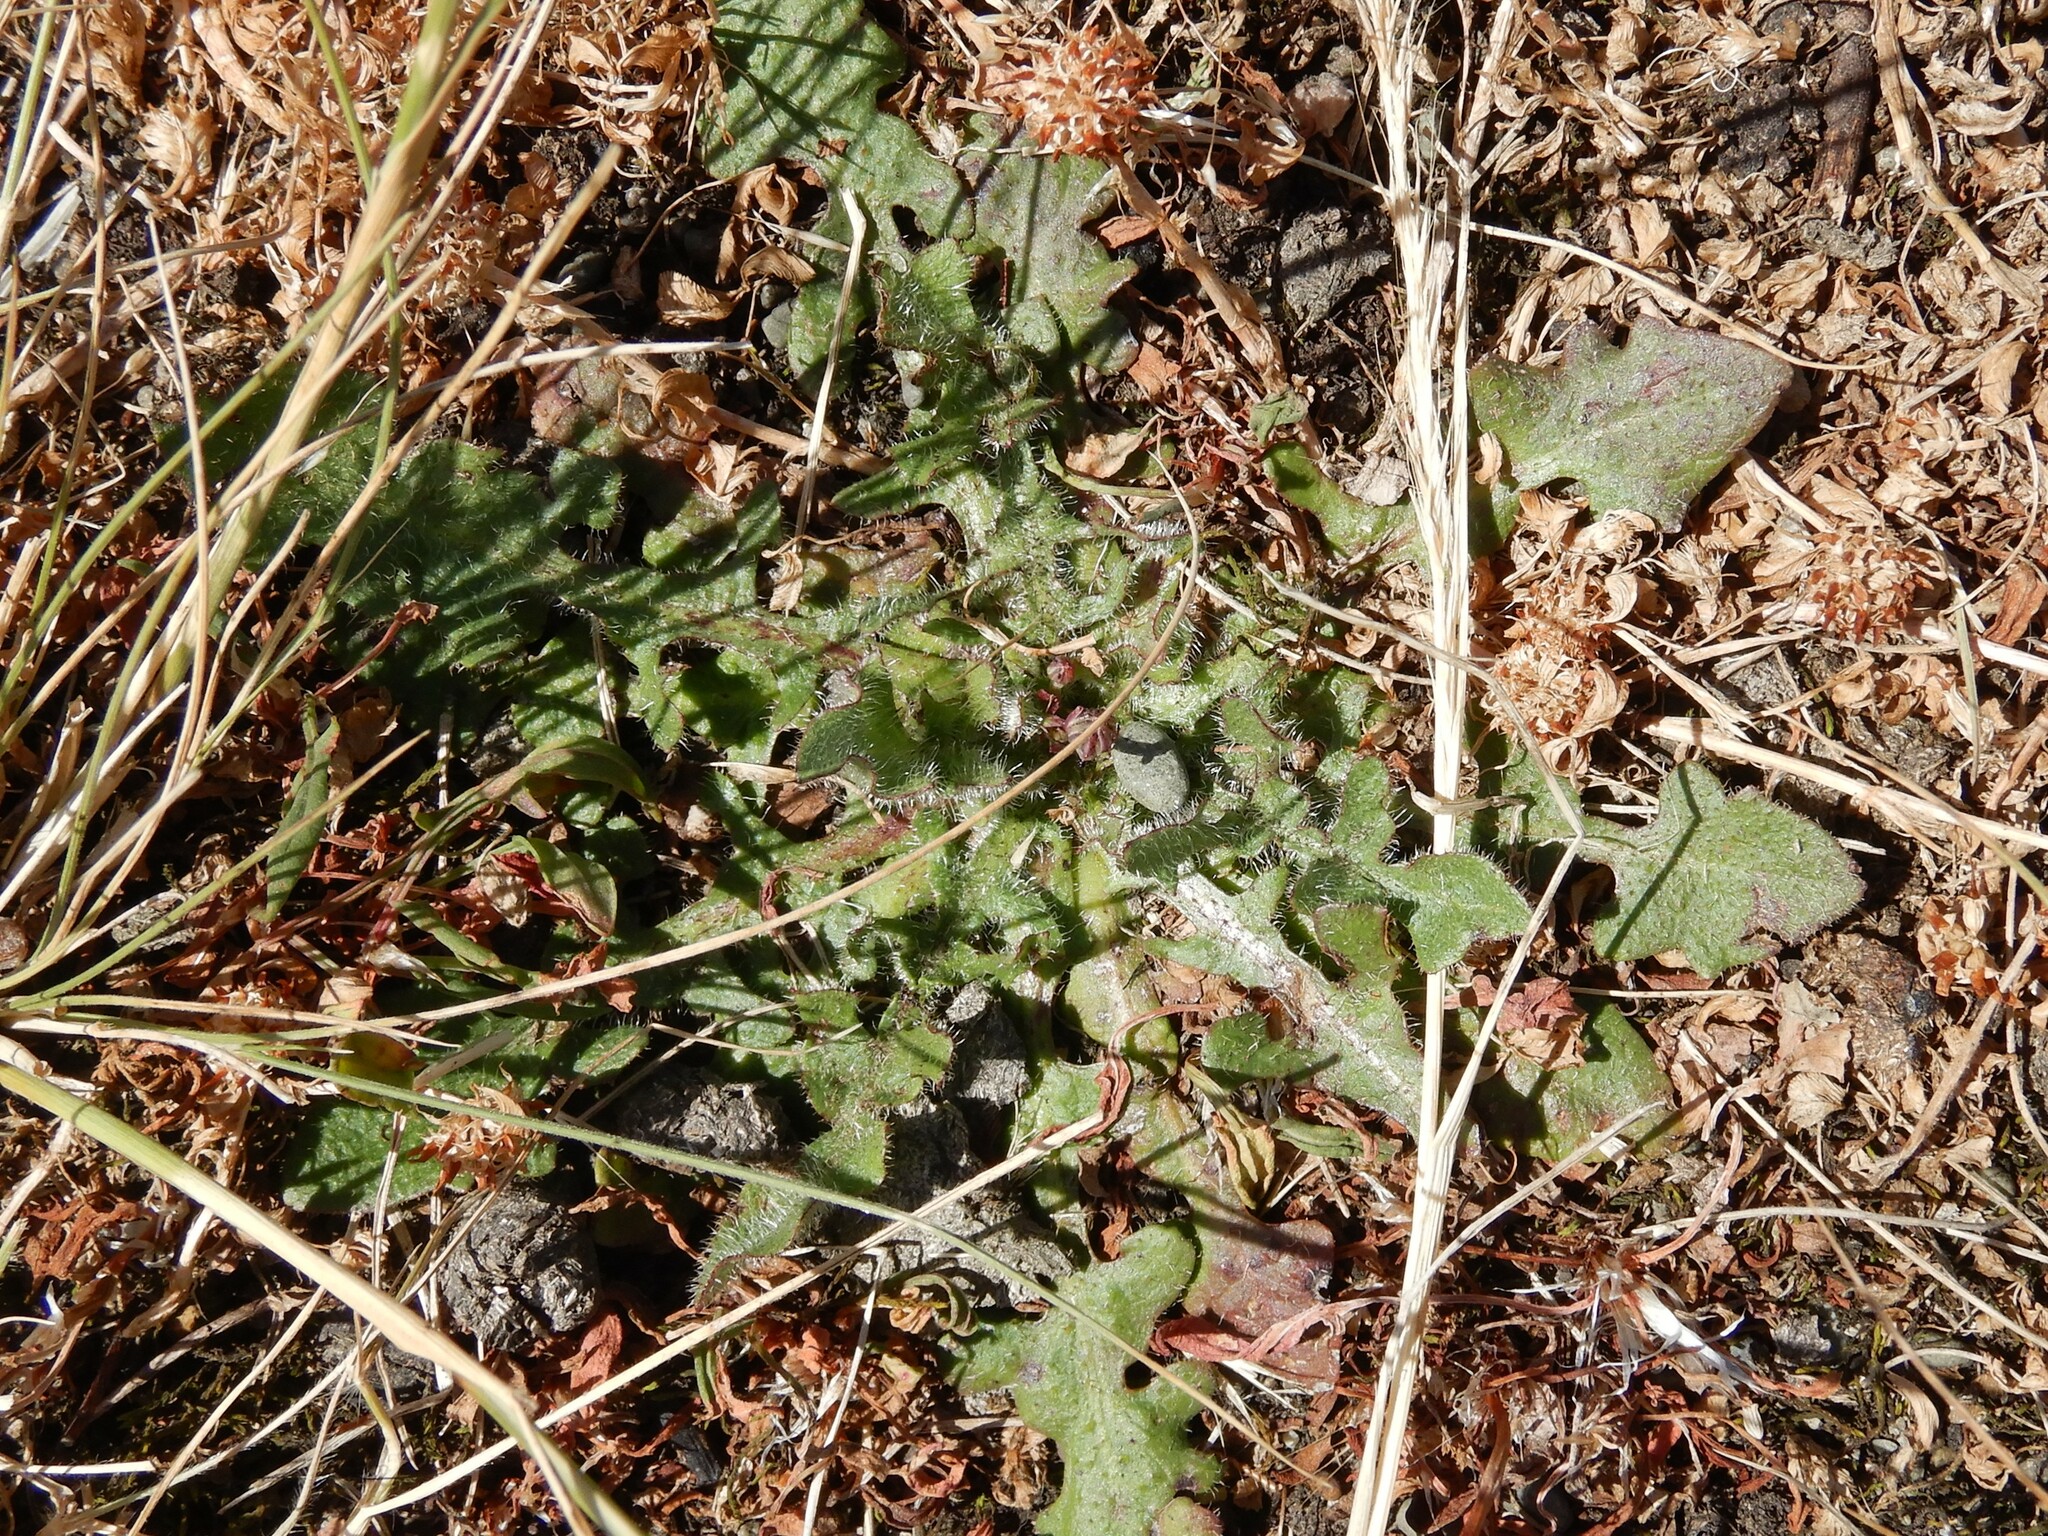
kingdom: Plantae
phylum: Tracheophyta
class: Magnoliopsida
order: Asterales
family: Asteraceae
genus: Hypochaeris
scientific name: Hypochaeris radicata
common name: Flatweed
